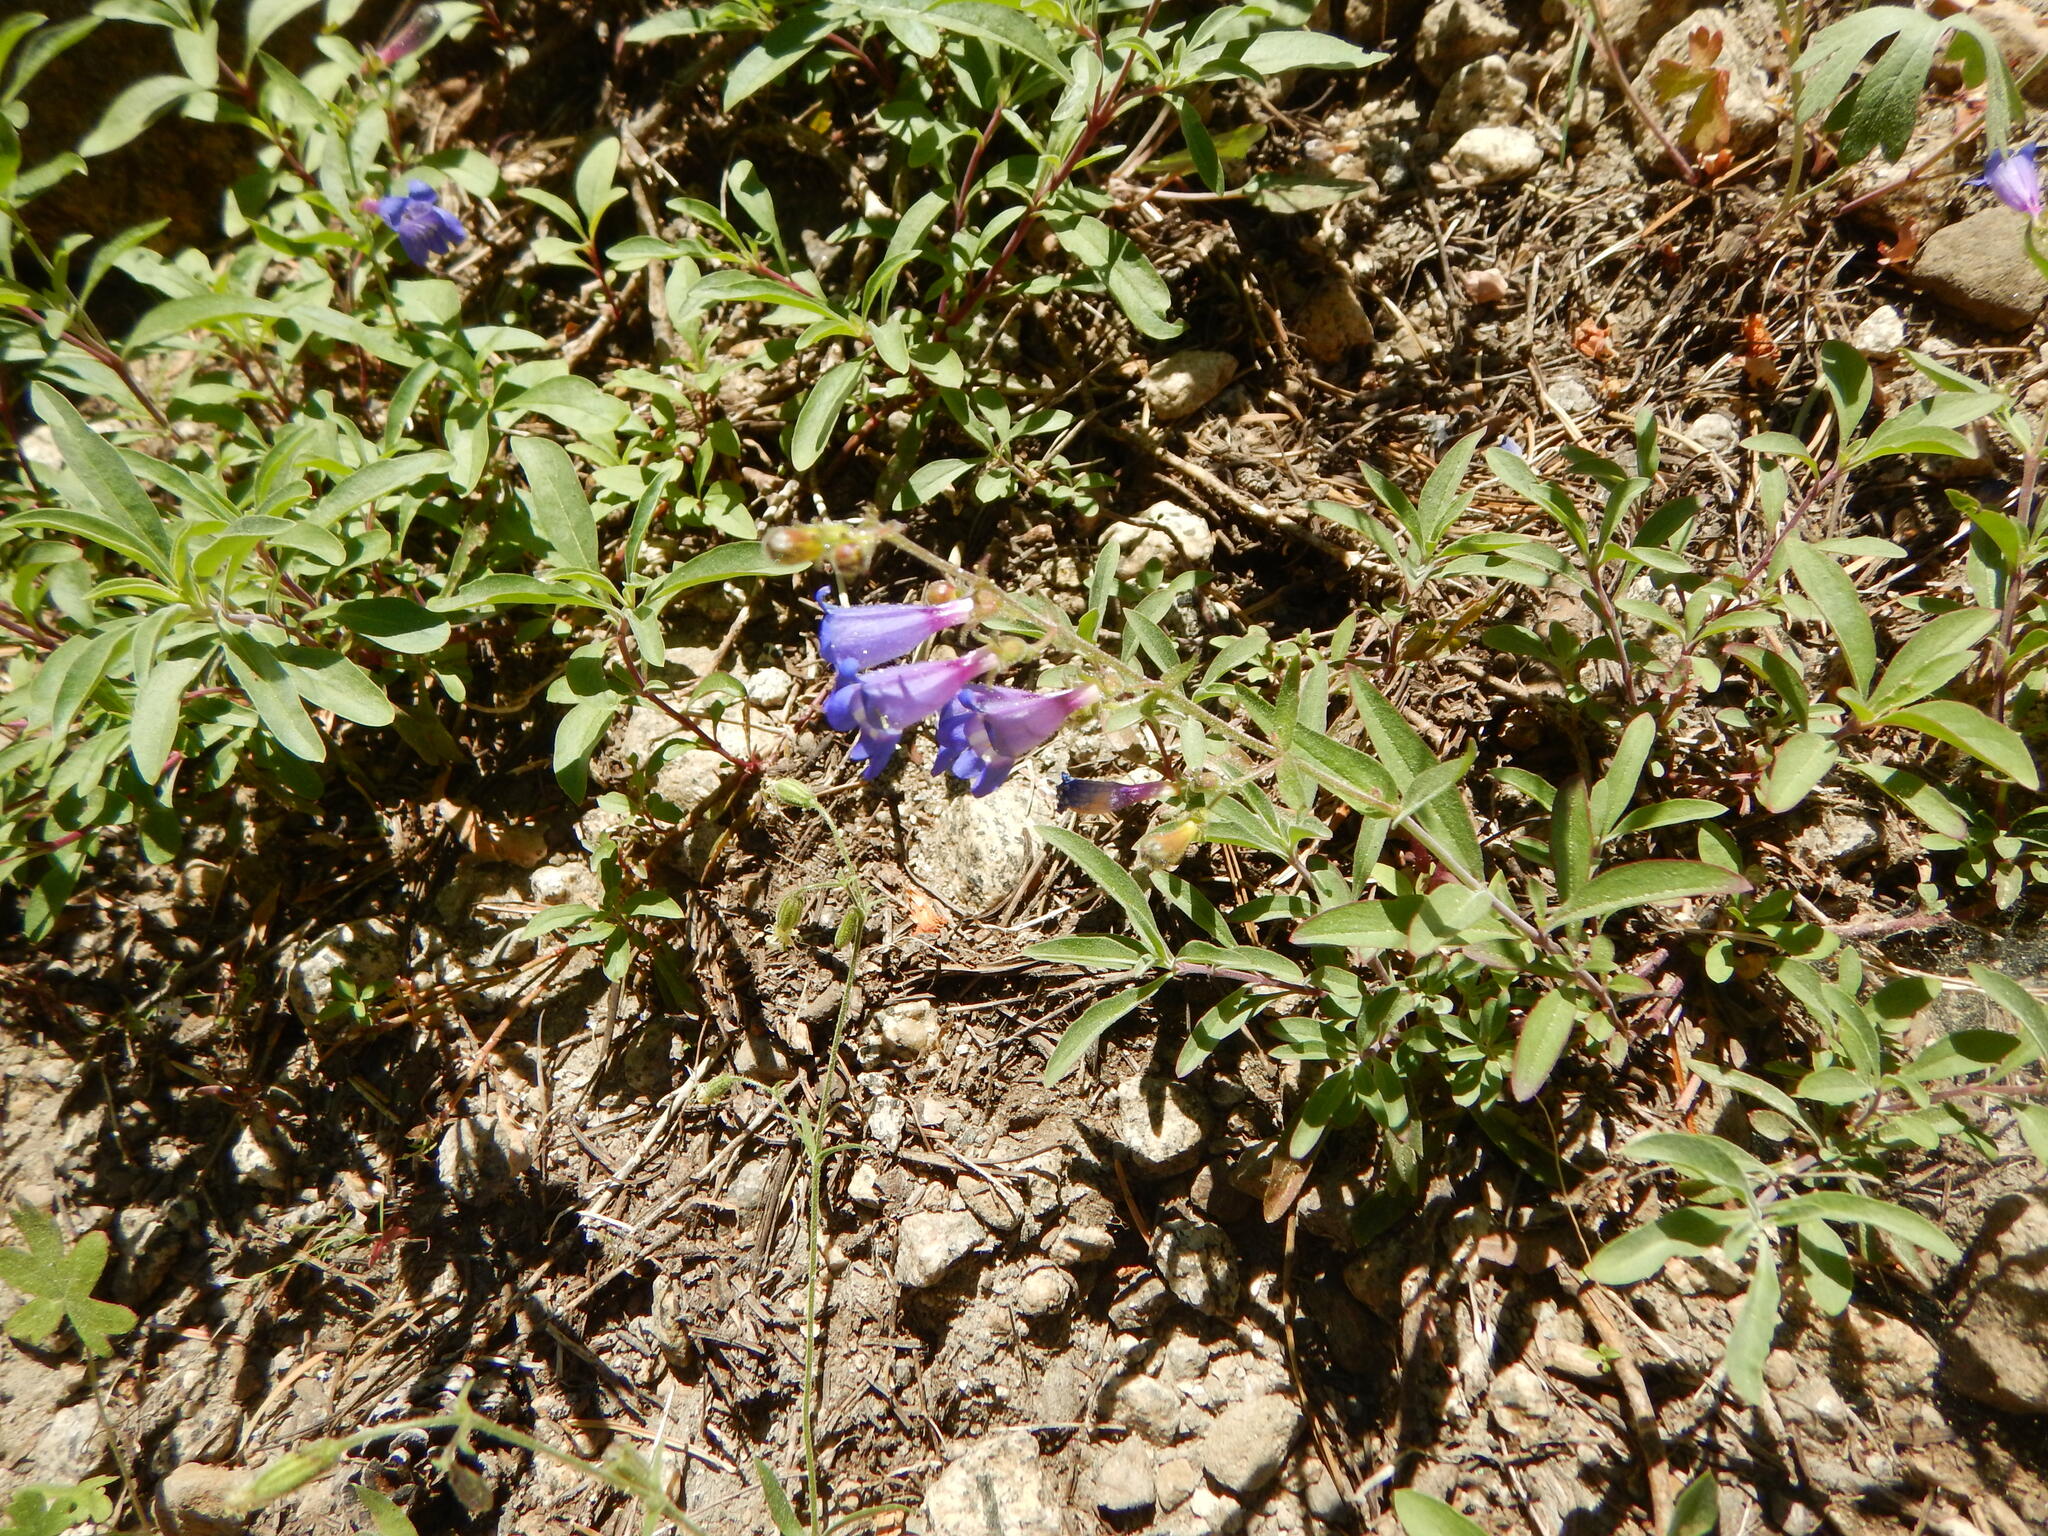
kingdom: Plantae
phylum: Tracheophyta
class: Magnoliopsida
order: Lamiales
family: Plantaginaceae
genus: Penstemon
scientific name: Penstemon laetus
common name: Gay penstemon
